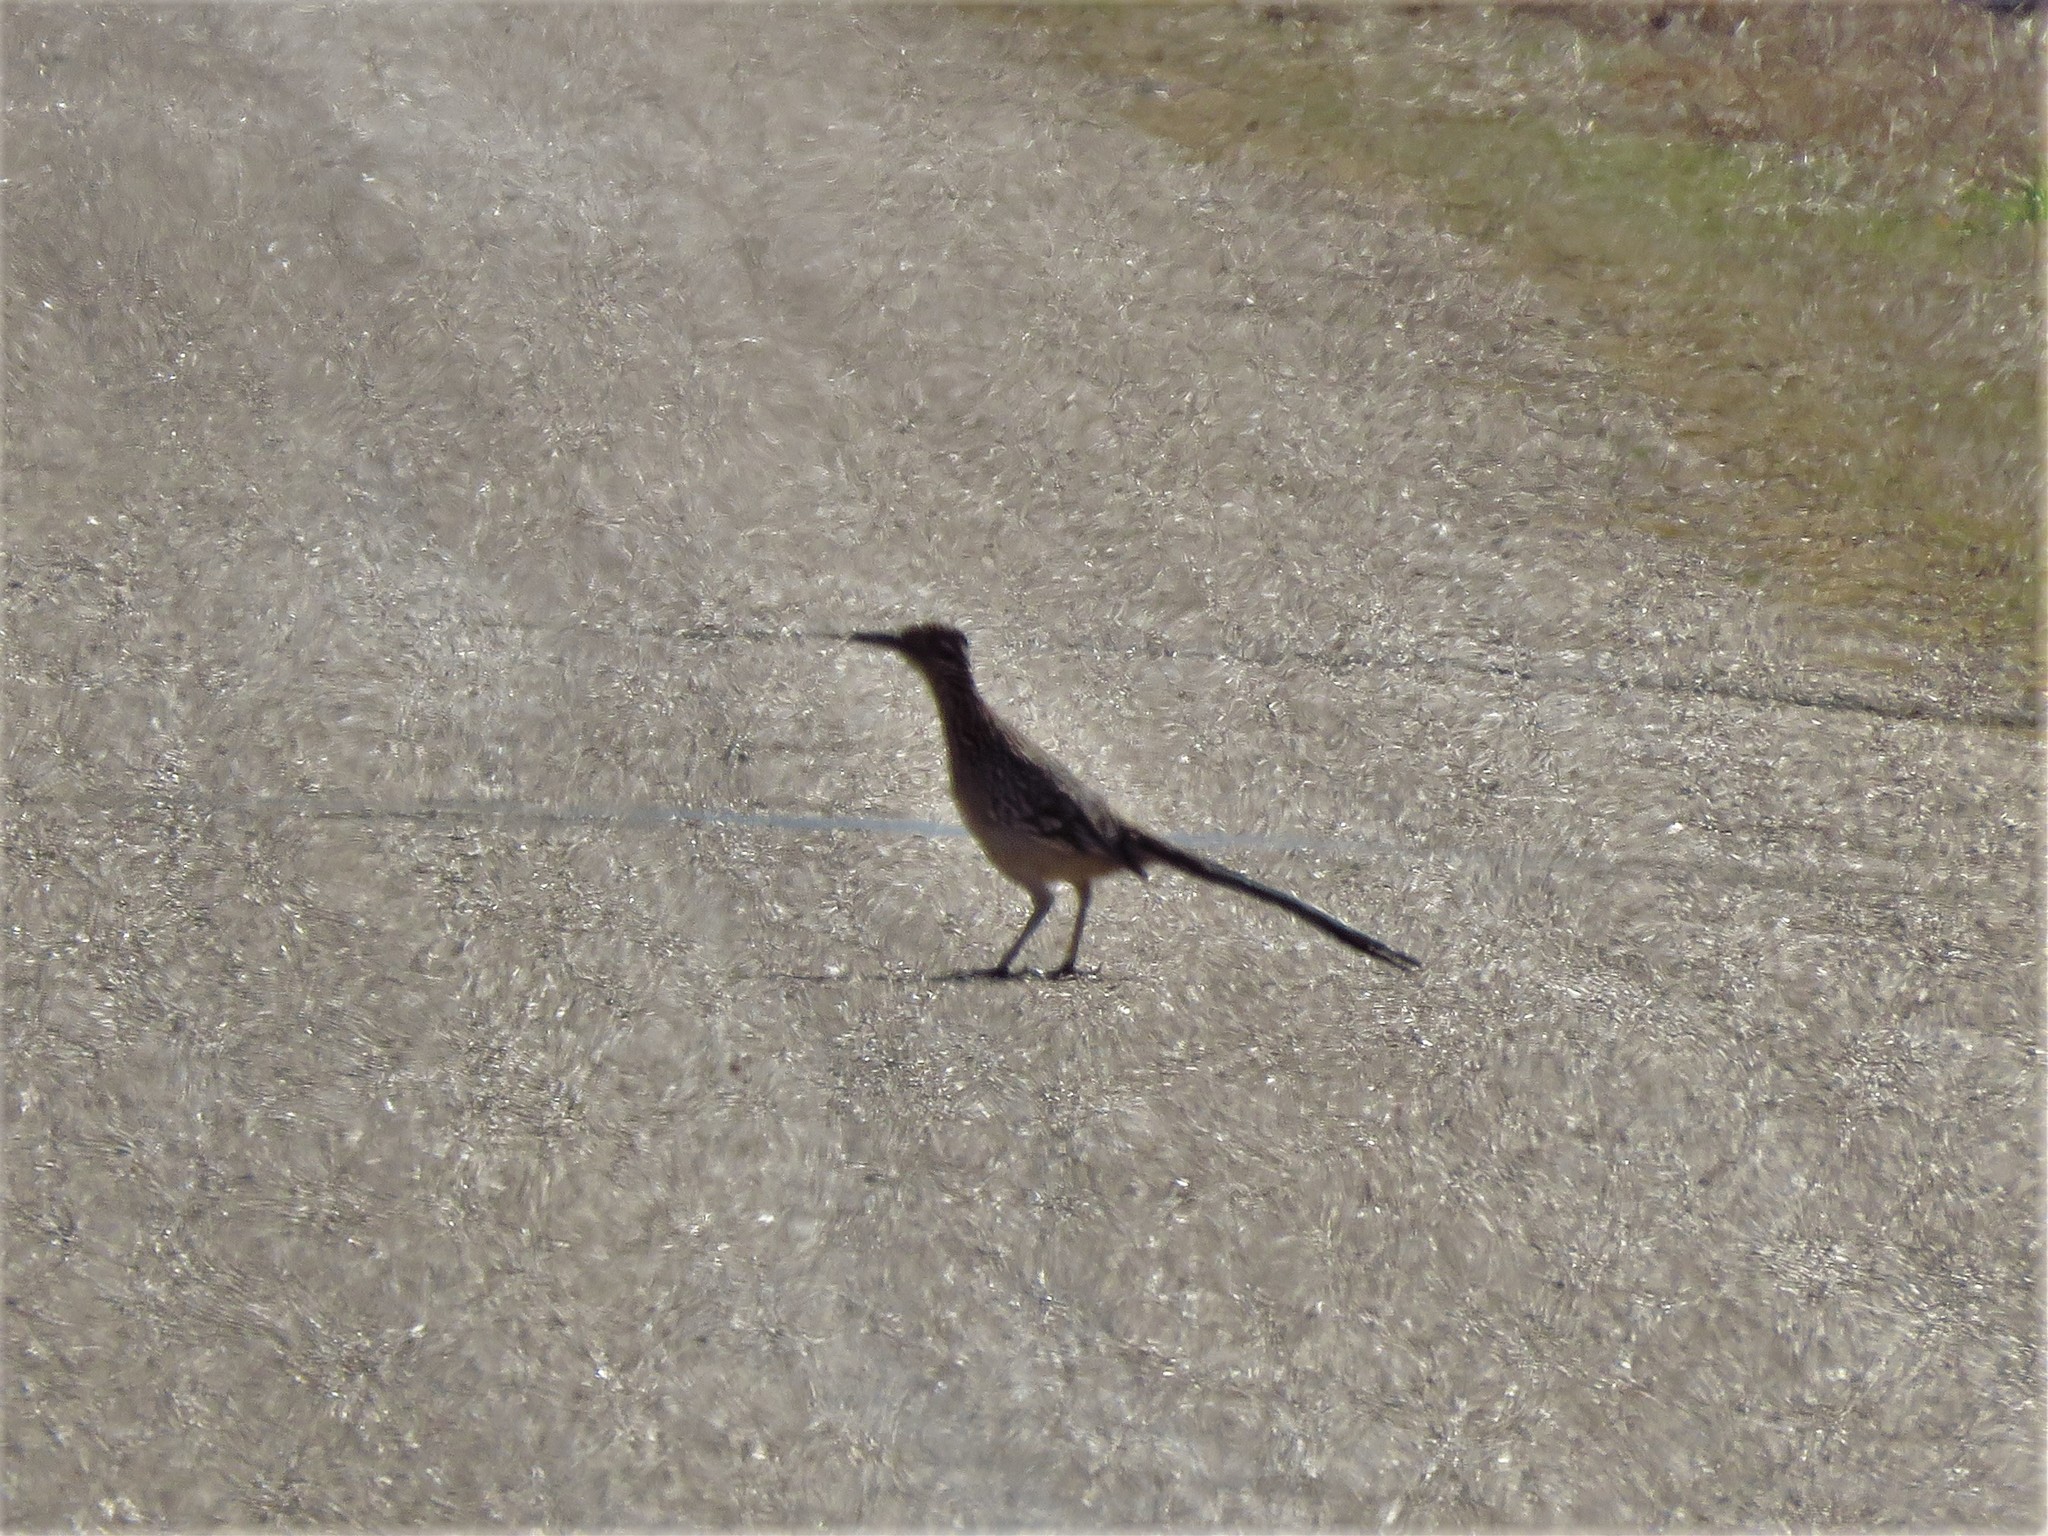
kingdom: Animalia
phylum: Chordata
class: Aves
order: Cuculiformes
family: Cuculidae
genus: Geococcyx
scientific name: Geococcyx californianus
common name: Greater roadrunner
